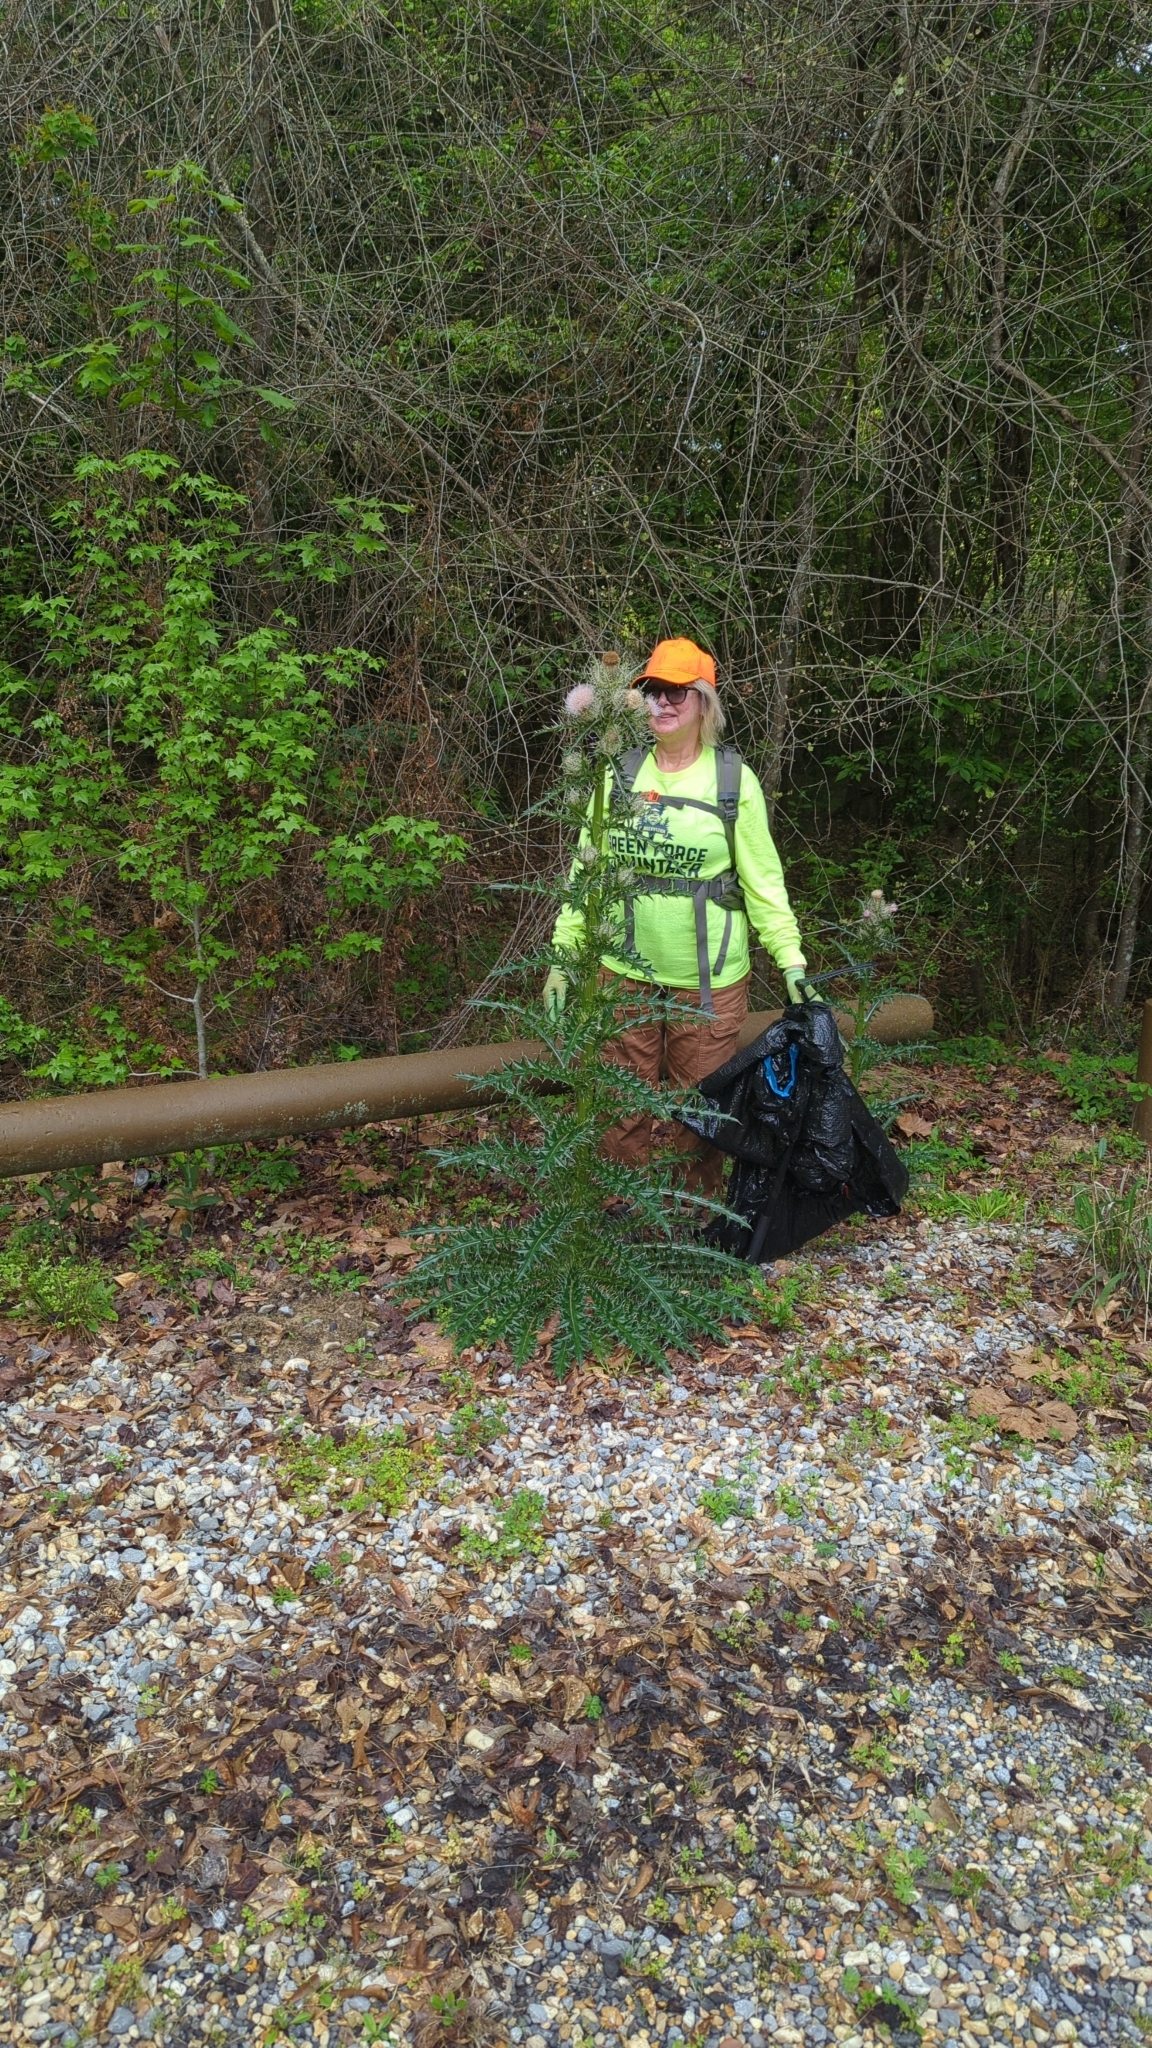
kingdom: Plantae
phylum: Tracheophyta
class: Magnoliopsida
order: Asterales
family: Asteraceae
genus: Cirsium
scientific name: Cirsium horridulum
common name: Bristly thistle
